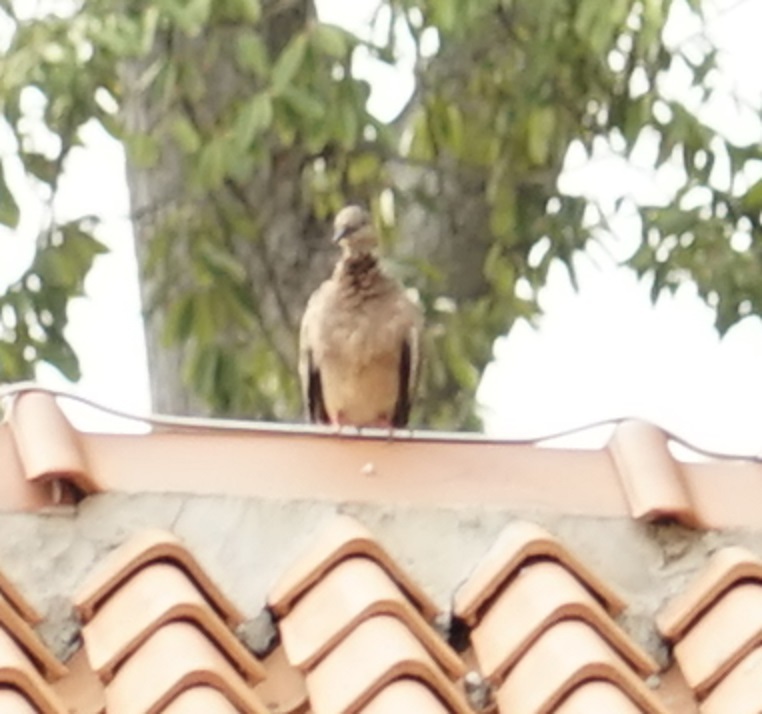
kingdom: Animalia
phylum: Chordata
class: Aves
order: Columbiformes
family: Columbidae
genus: Spilopelia
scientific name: Spilopelia chinensis
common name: Spotted dove
